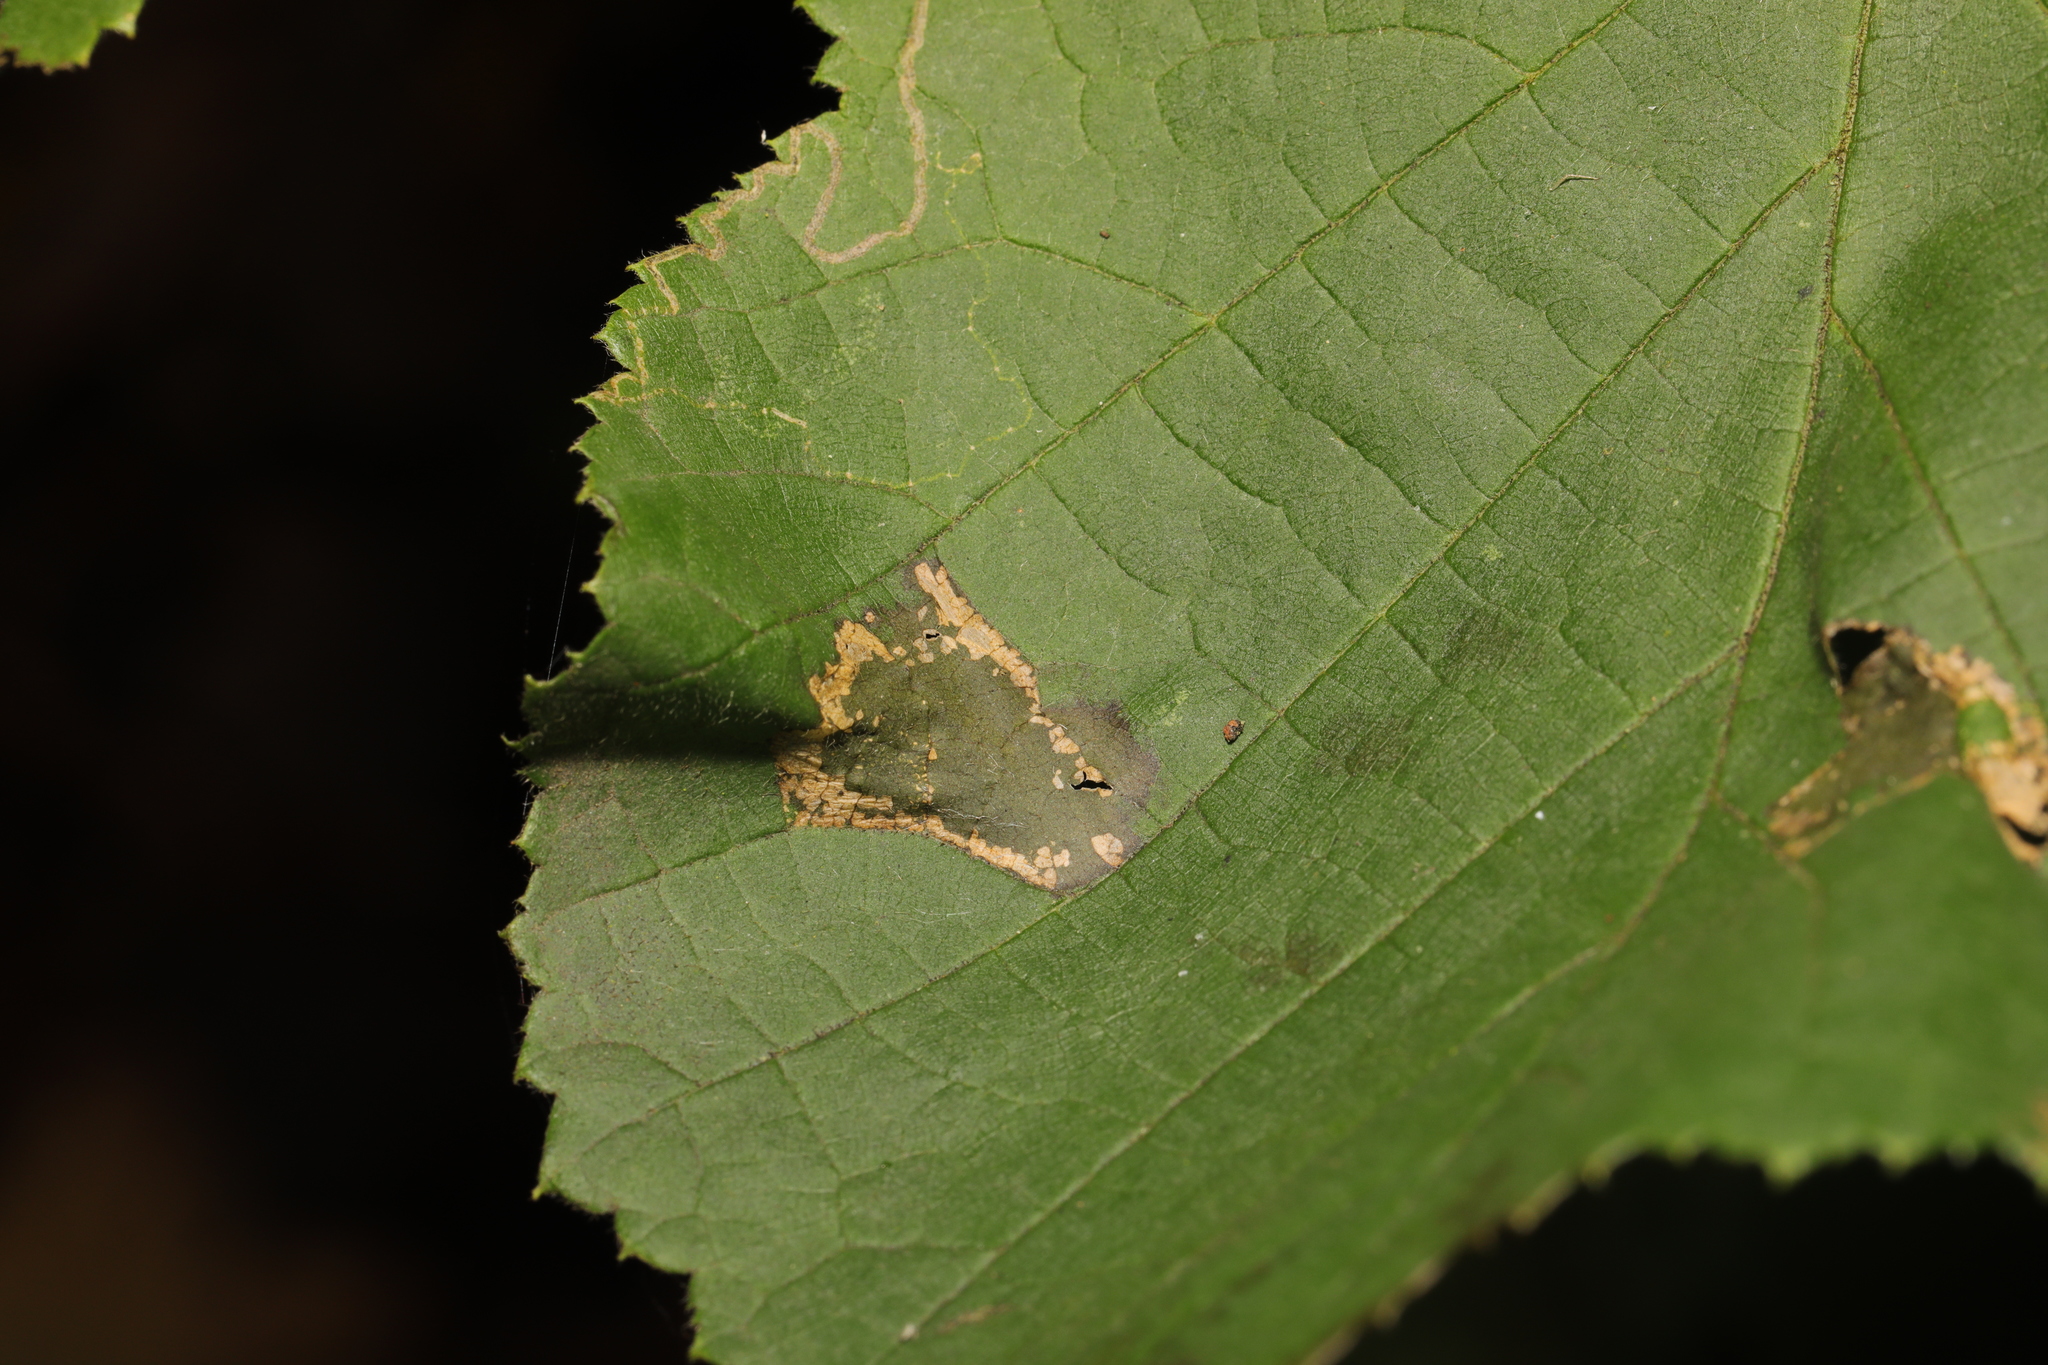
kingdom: Animalia
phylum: Arthropoda
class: Insecta
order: Lepidoptera
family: Gracillariidae
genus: Phyllonorycter
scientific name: Phyllonorycter nicellii
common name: Red hazel midget
